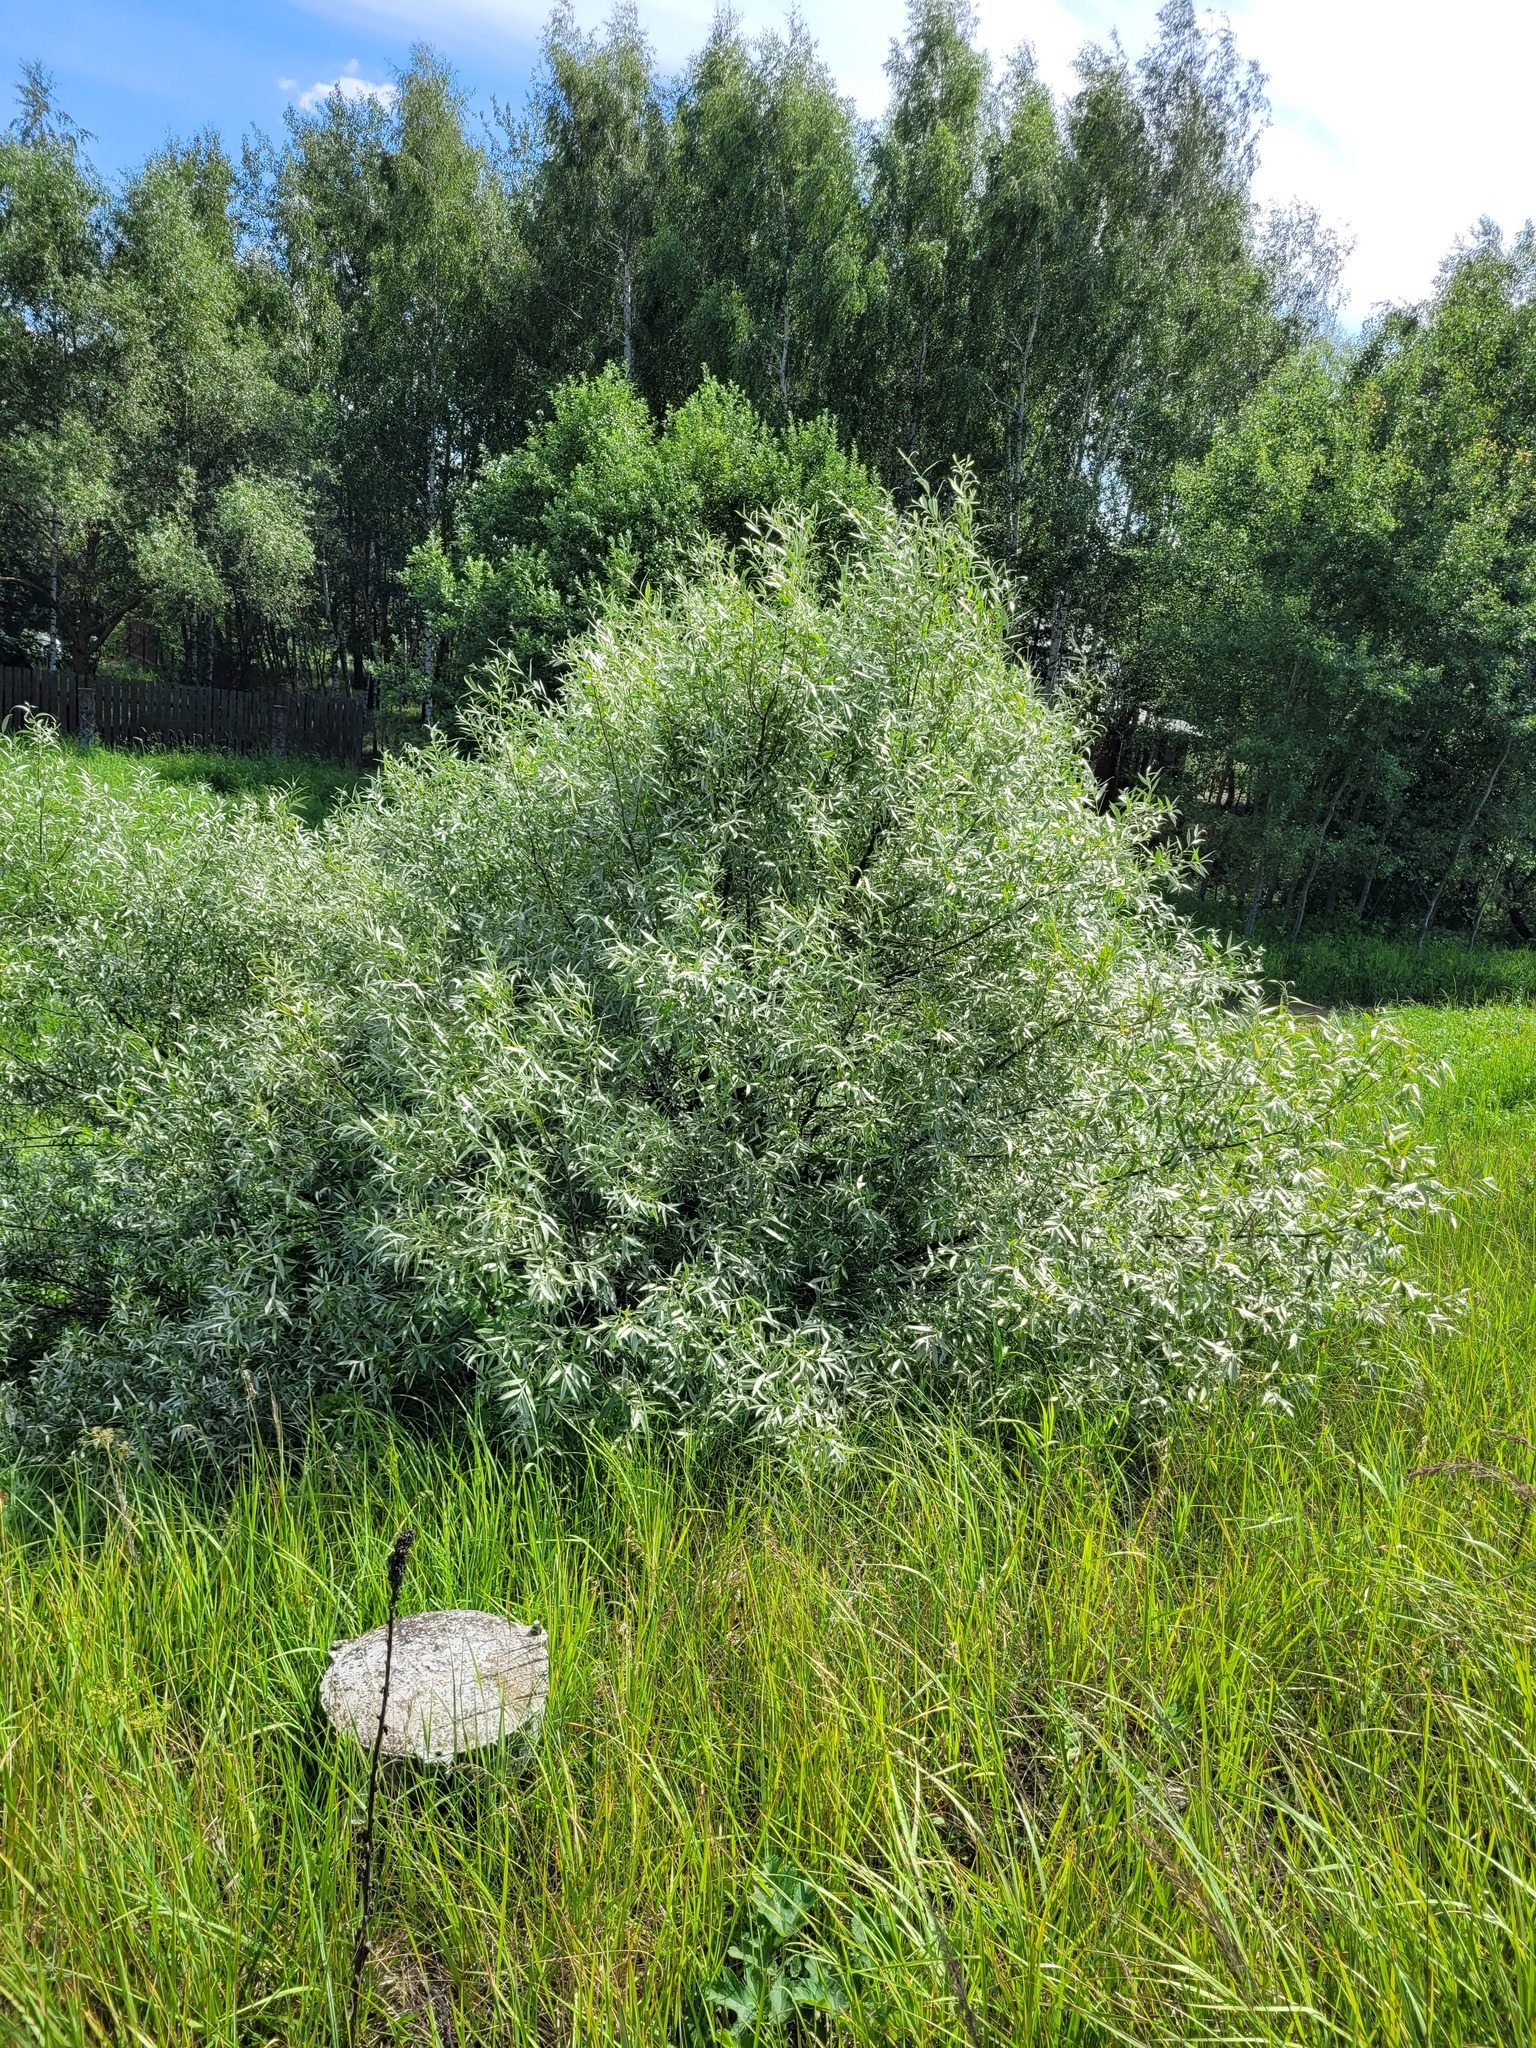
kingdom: Plantae
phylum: Tracheophyta
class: Magnoliopsida
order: Malpighiales
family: Salicaceae
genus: Salix
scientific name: Salix alba
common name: White willow
